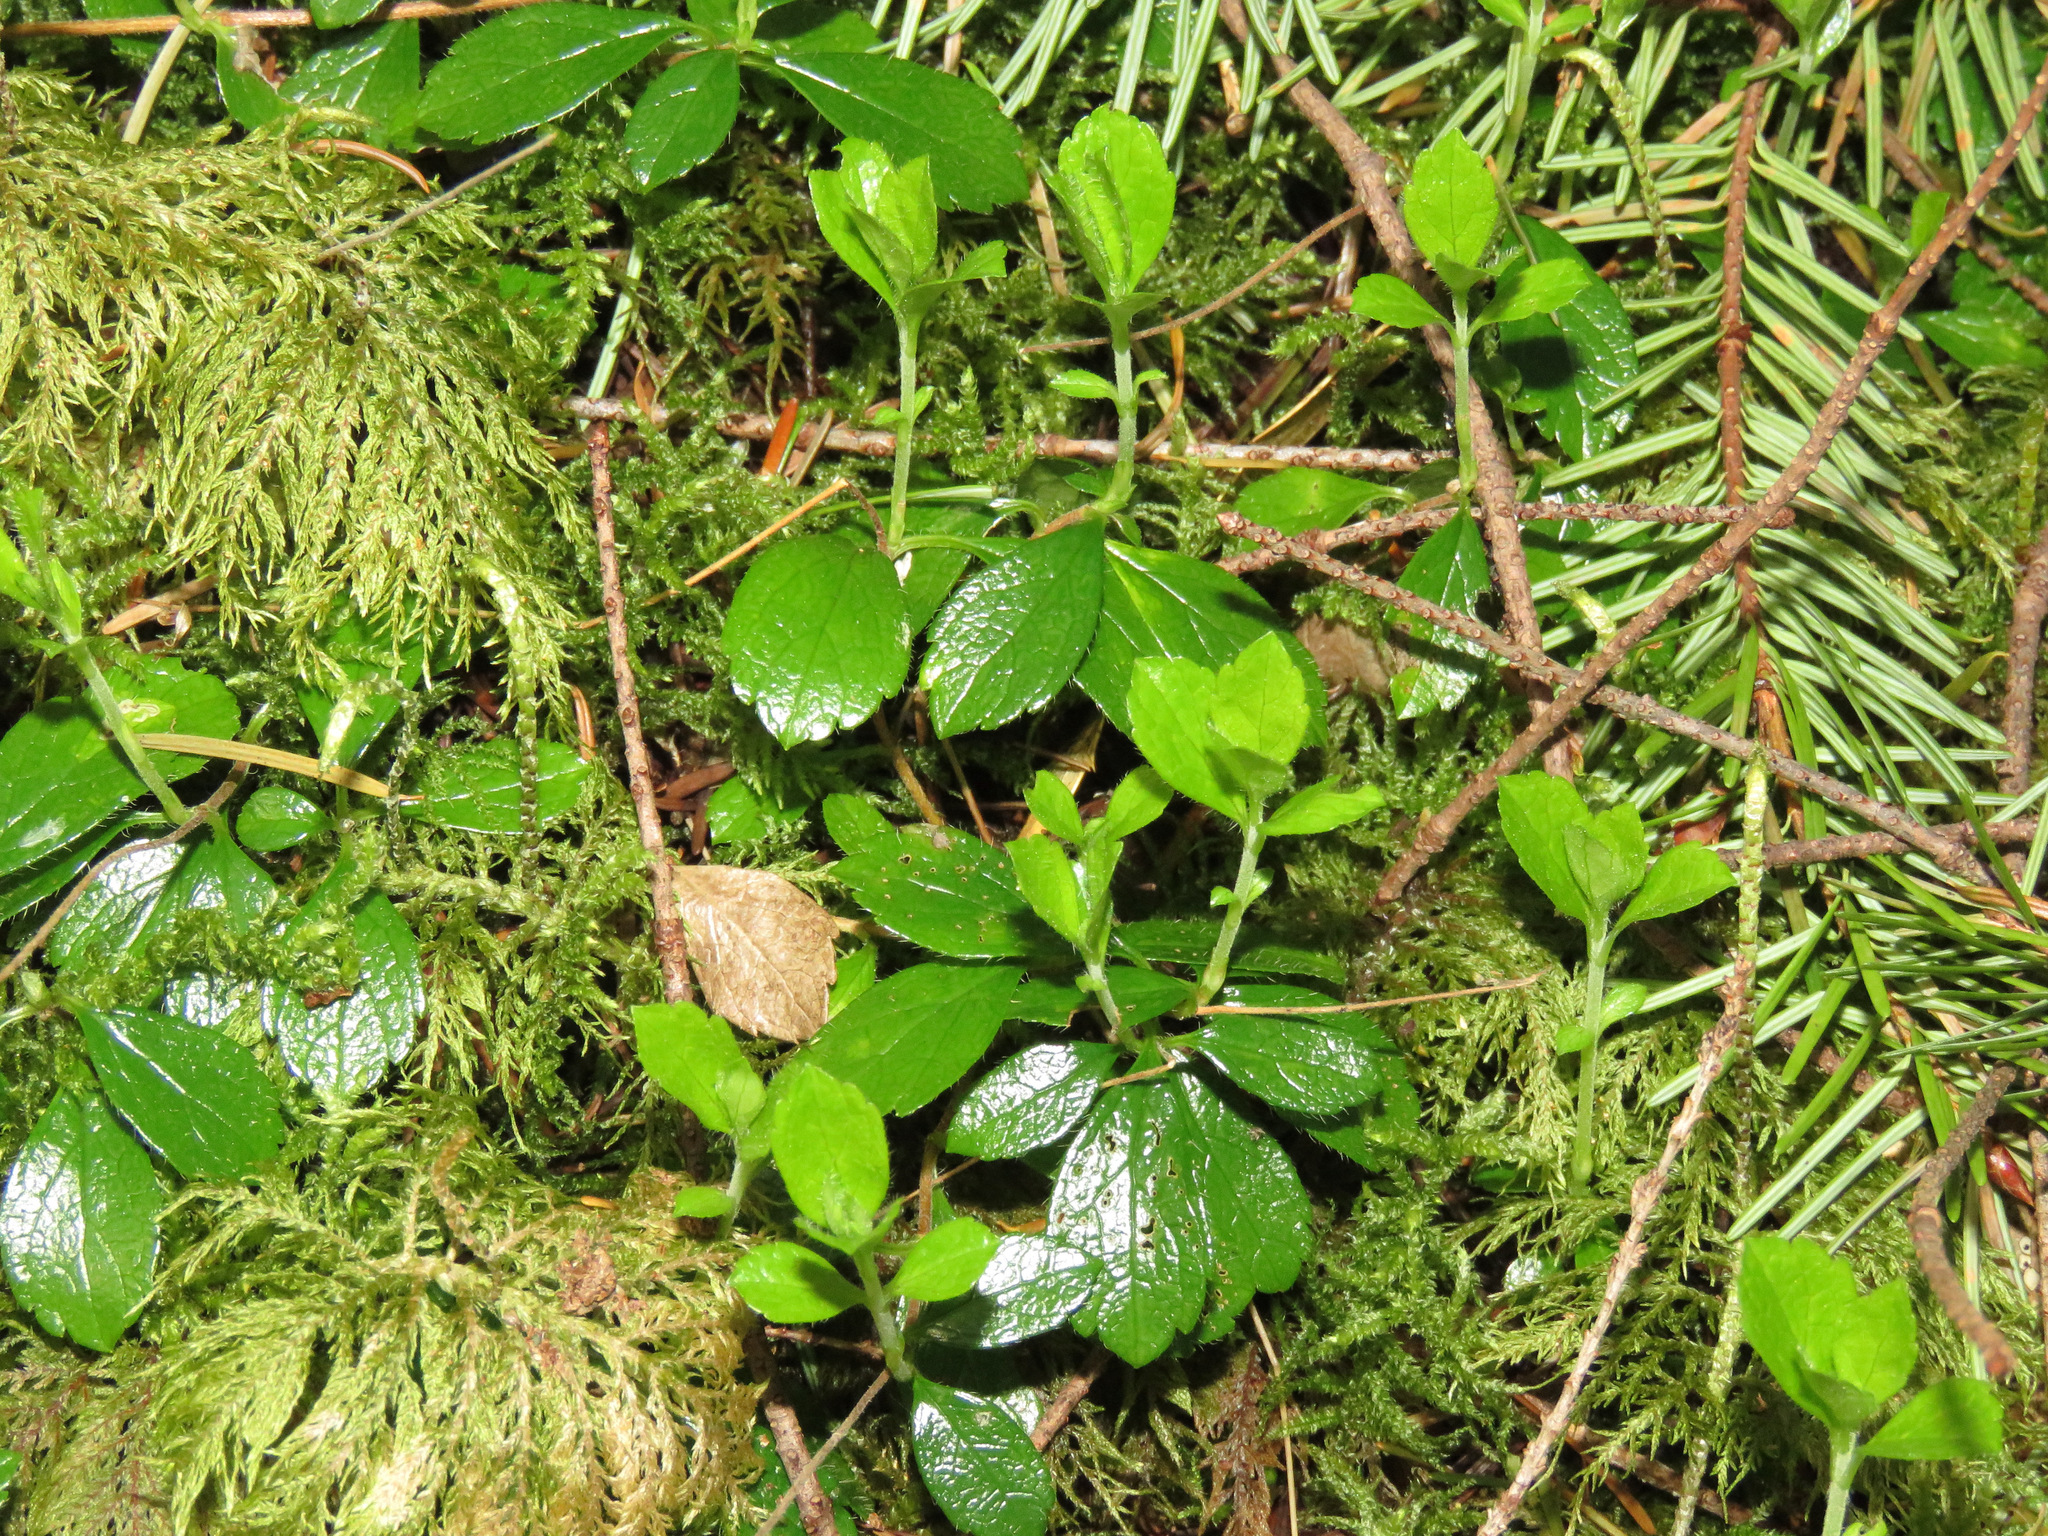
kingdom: Plantae
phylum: Tracheophyta
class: Magnoliopsida
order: Dipsacales
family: Caprifoliaceae
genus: Linnaea
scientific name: Linnaea borealis
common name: Twinflower
